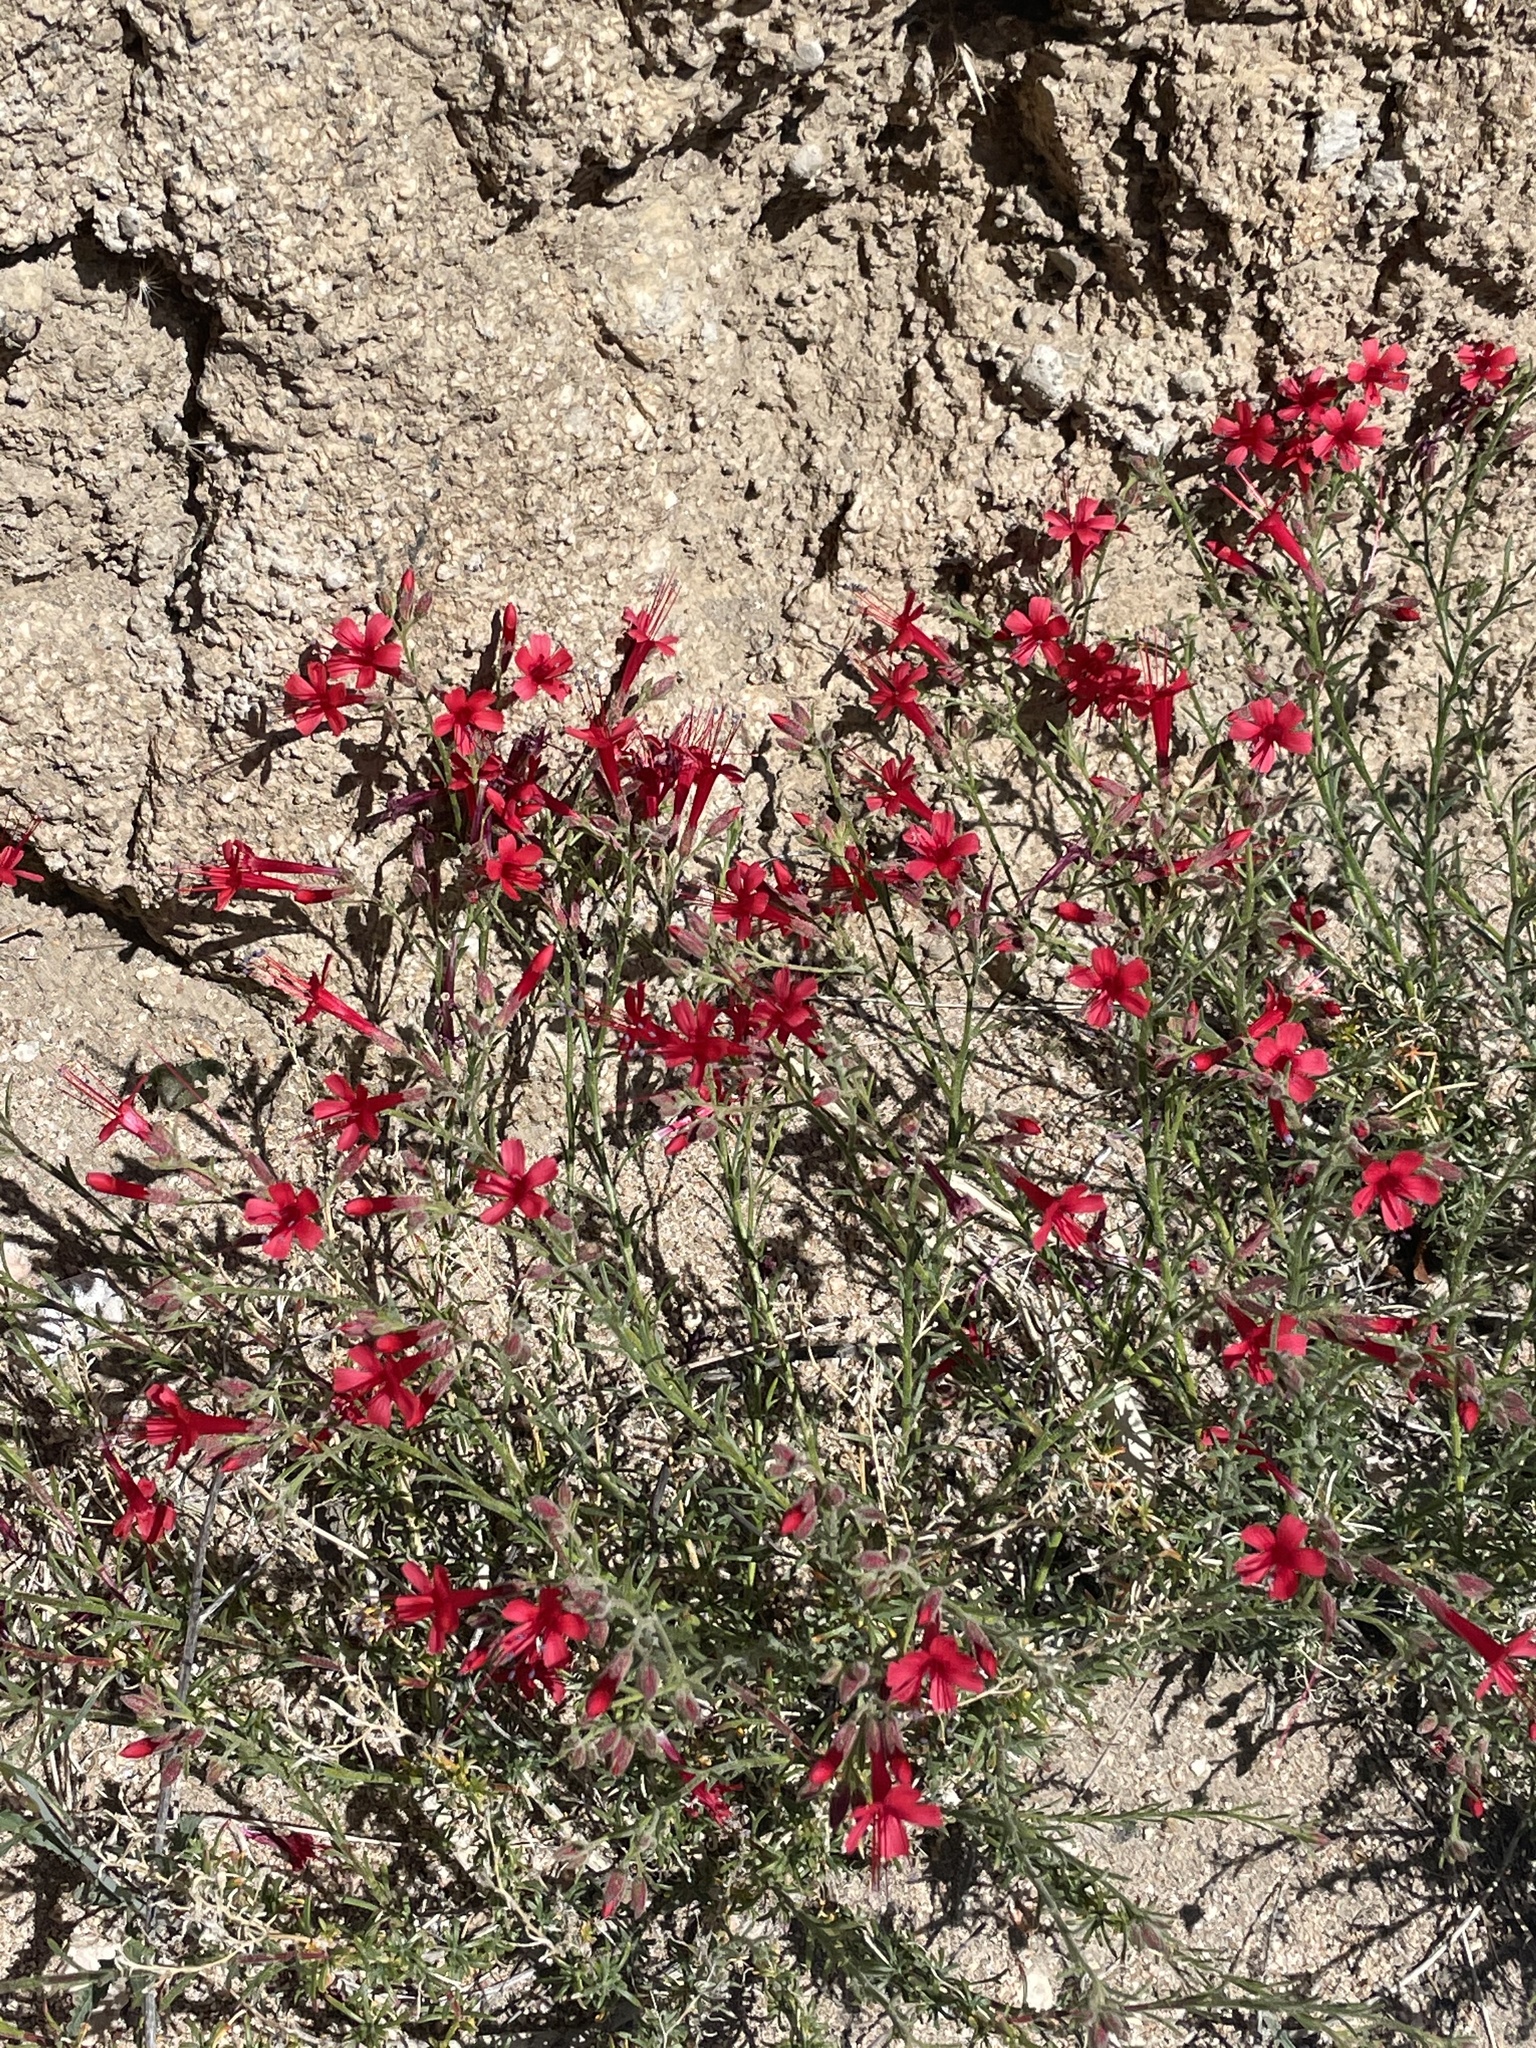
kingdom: Plantae
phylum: Tracheophyta
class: Magnoliopsida
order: Ericales
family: Polemoniaceae
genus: Ipomopsis
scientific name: Ipomopsis tenuifolia
